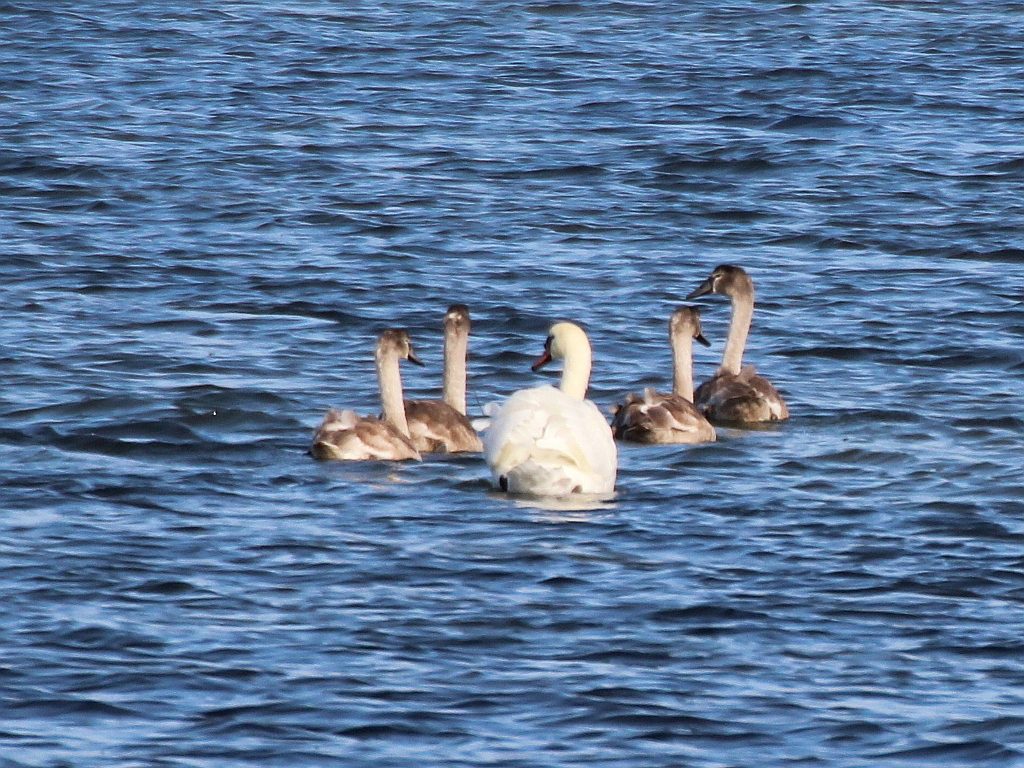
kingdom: Animalia
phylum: Chordata
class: Aves
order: Anseriformes
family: Anatidae
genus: Cygnus
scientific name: Cygnus olor
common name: Mute swan
